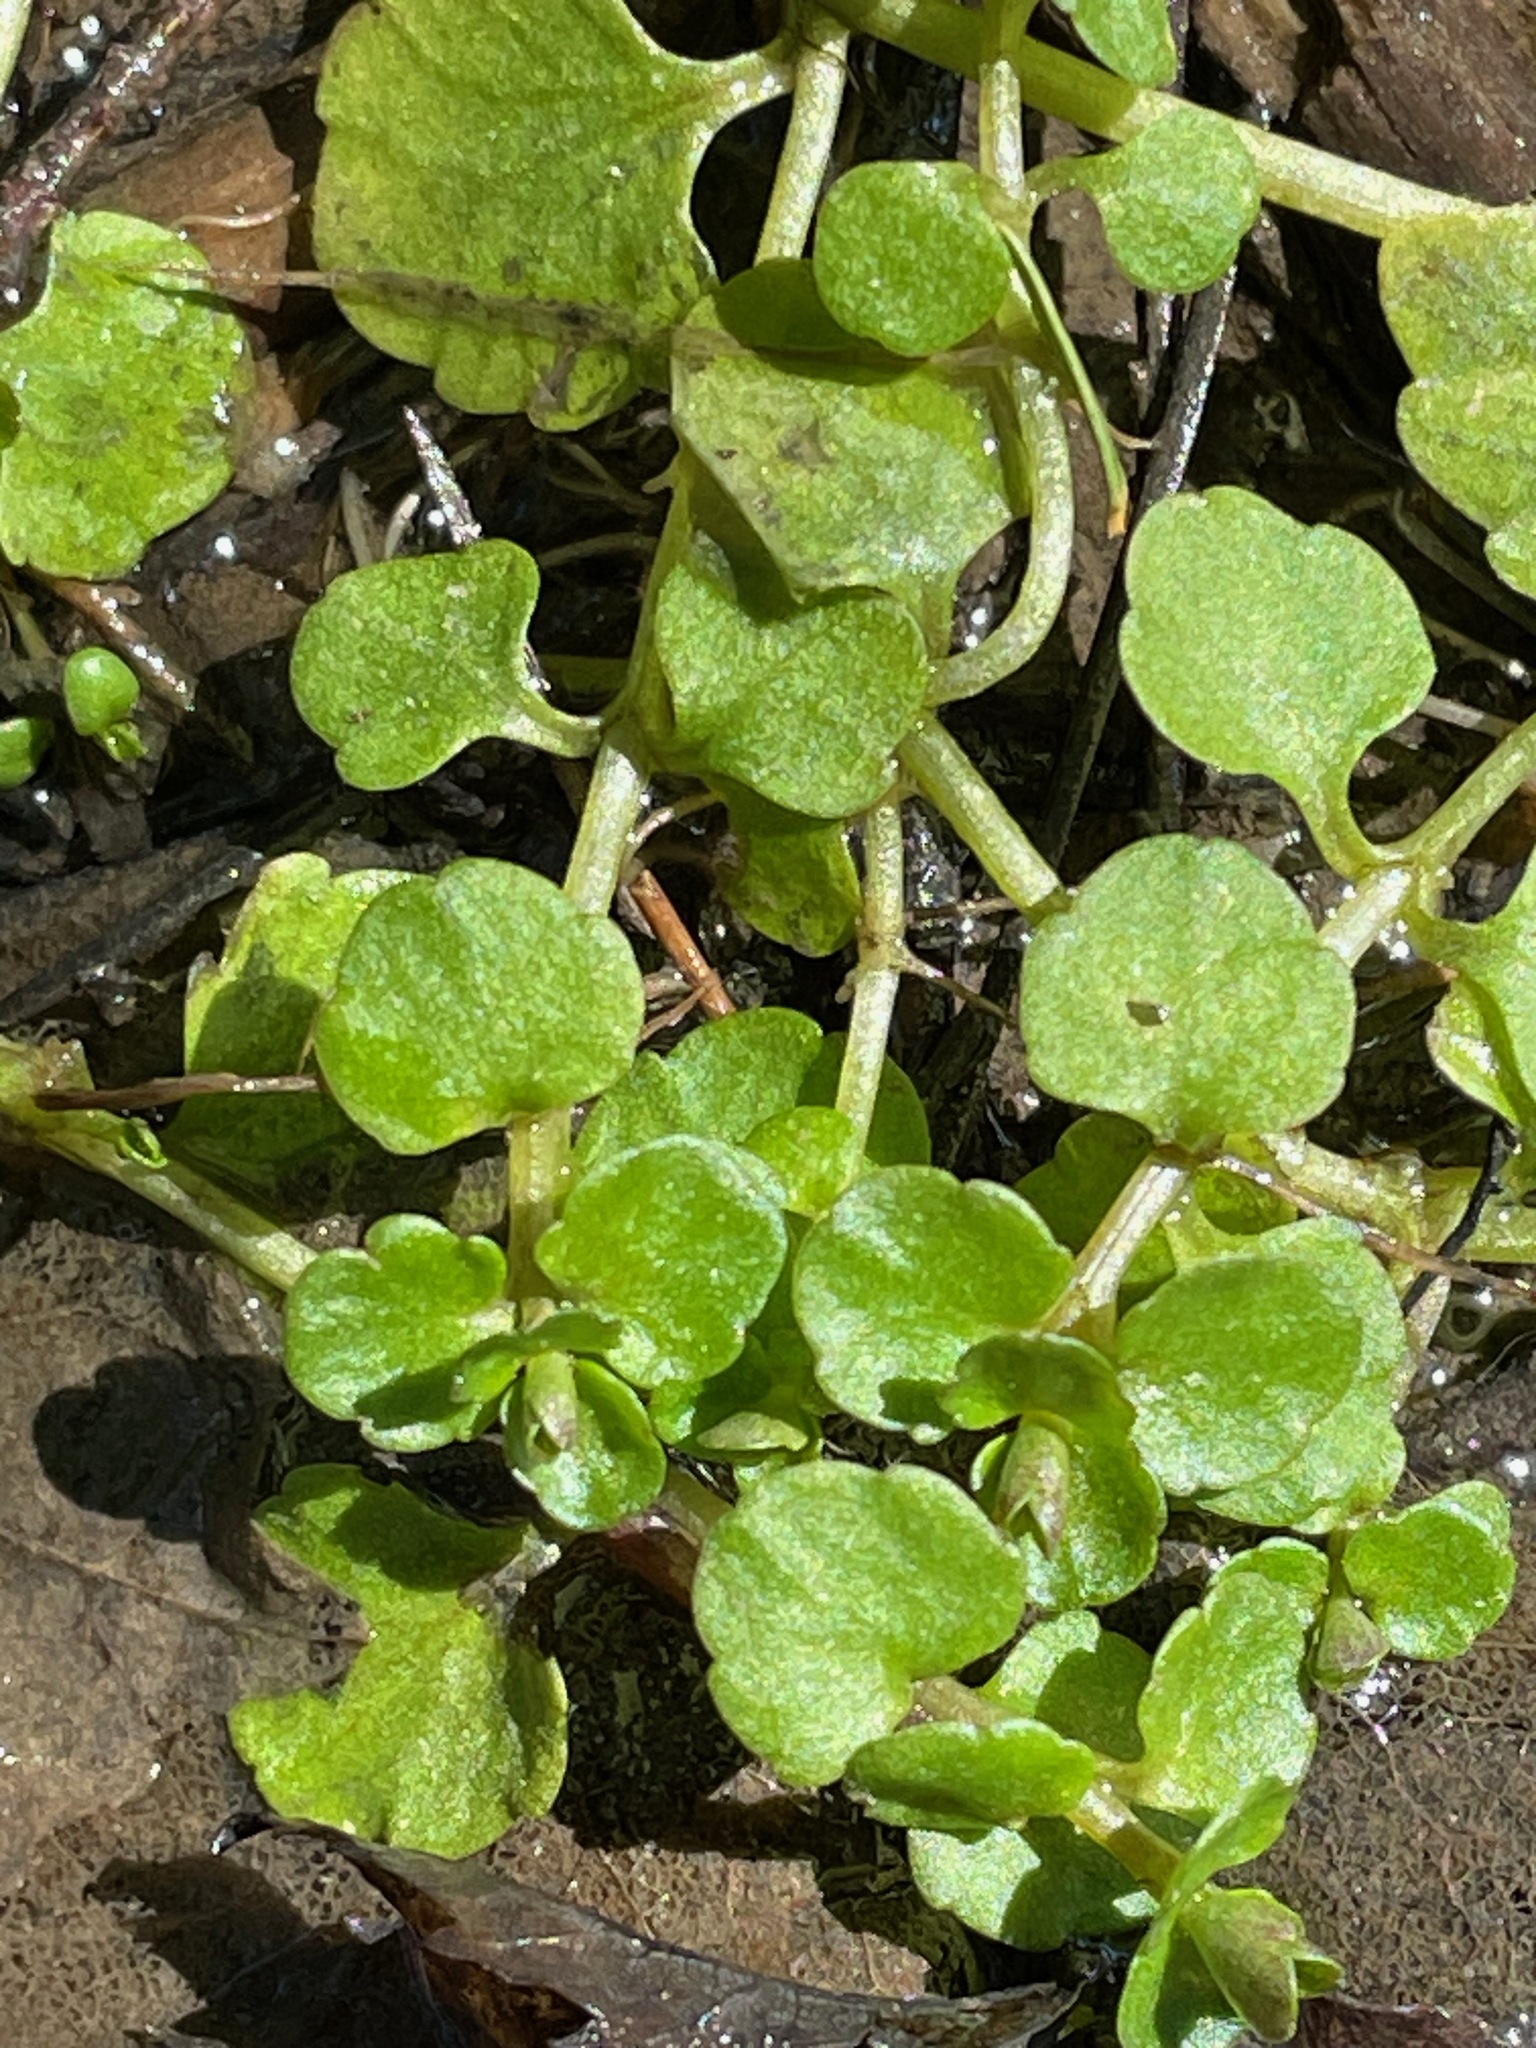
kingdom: Plantae
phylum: Tracheophyta
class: Magnoliopsida
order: Saxifragales
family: Saxifragaceae
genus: Chrysosplenium
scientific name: Chrysosplenium americanum
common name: American golden-saxifrage
